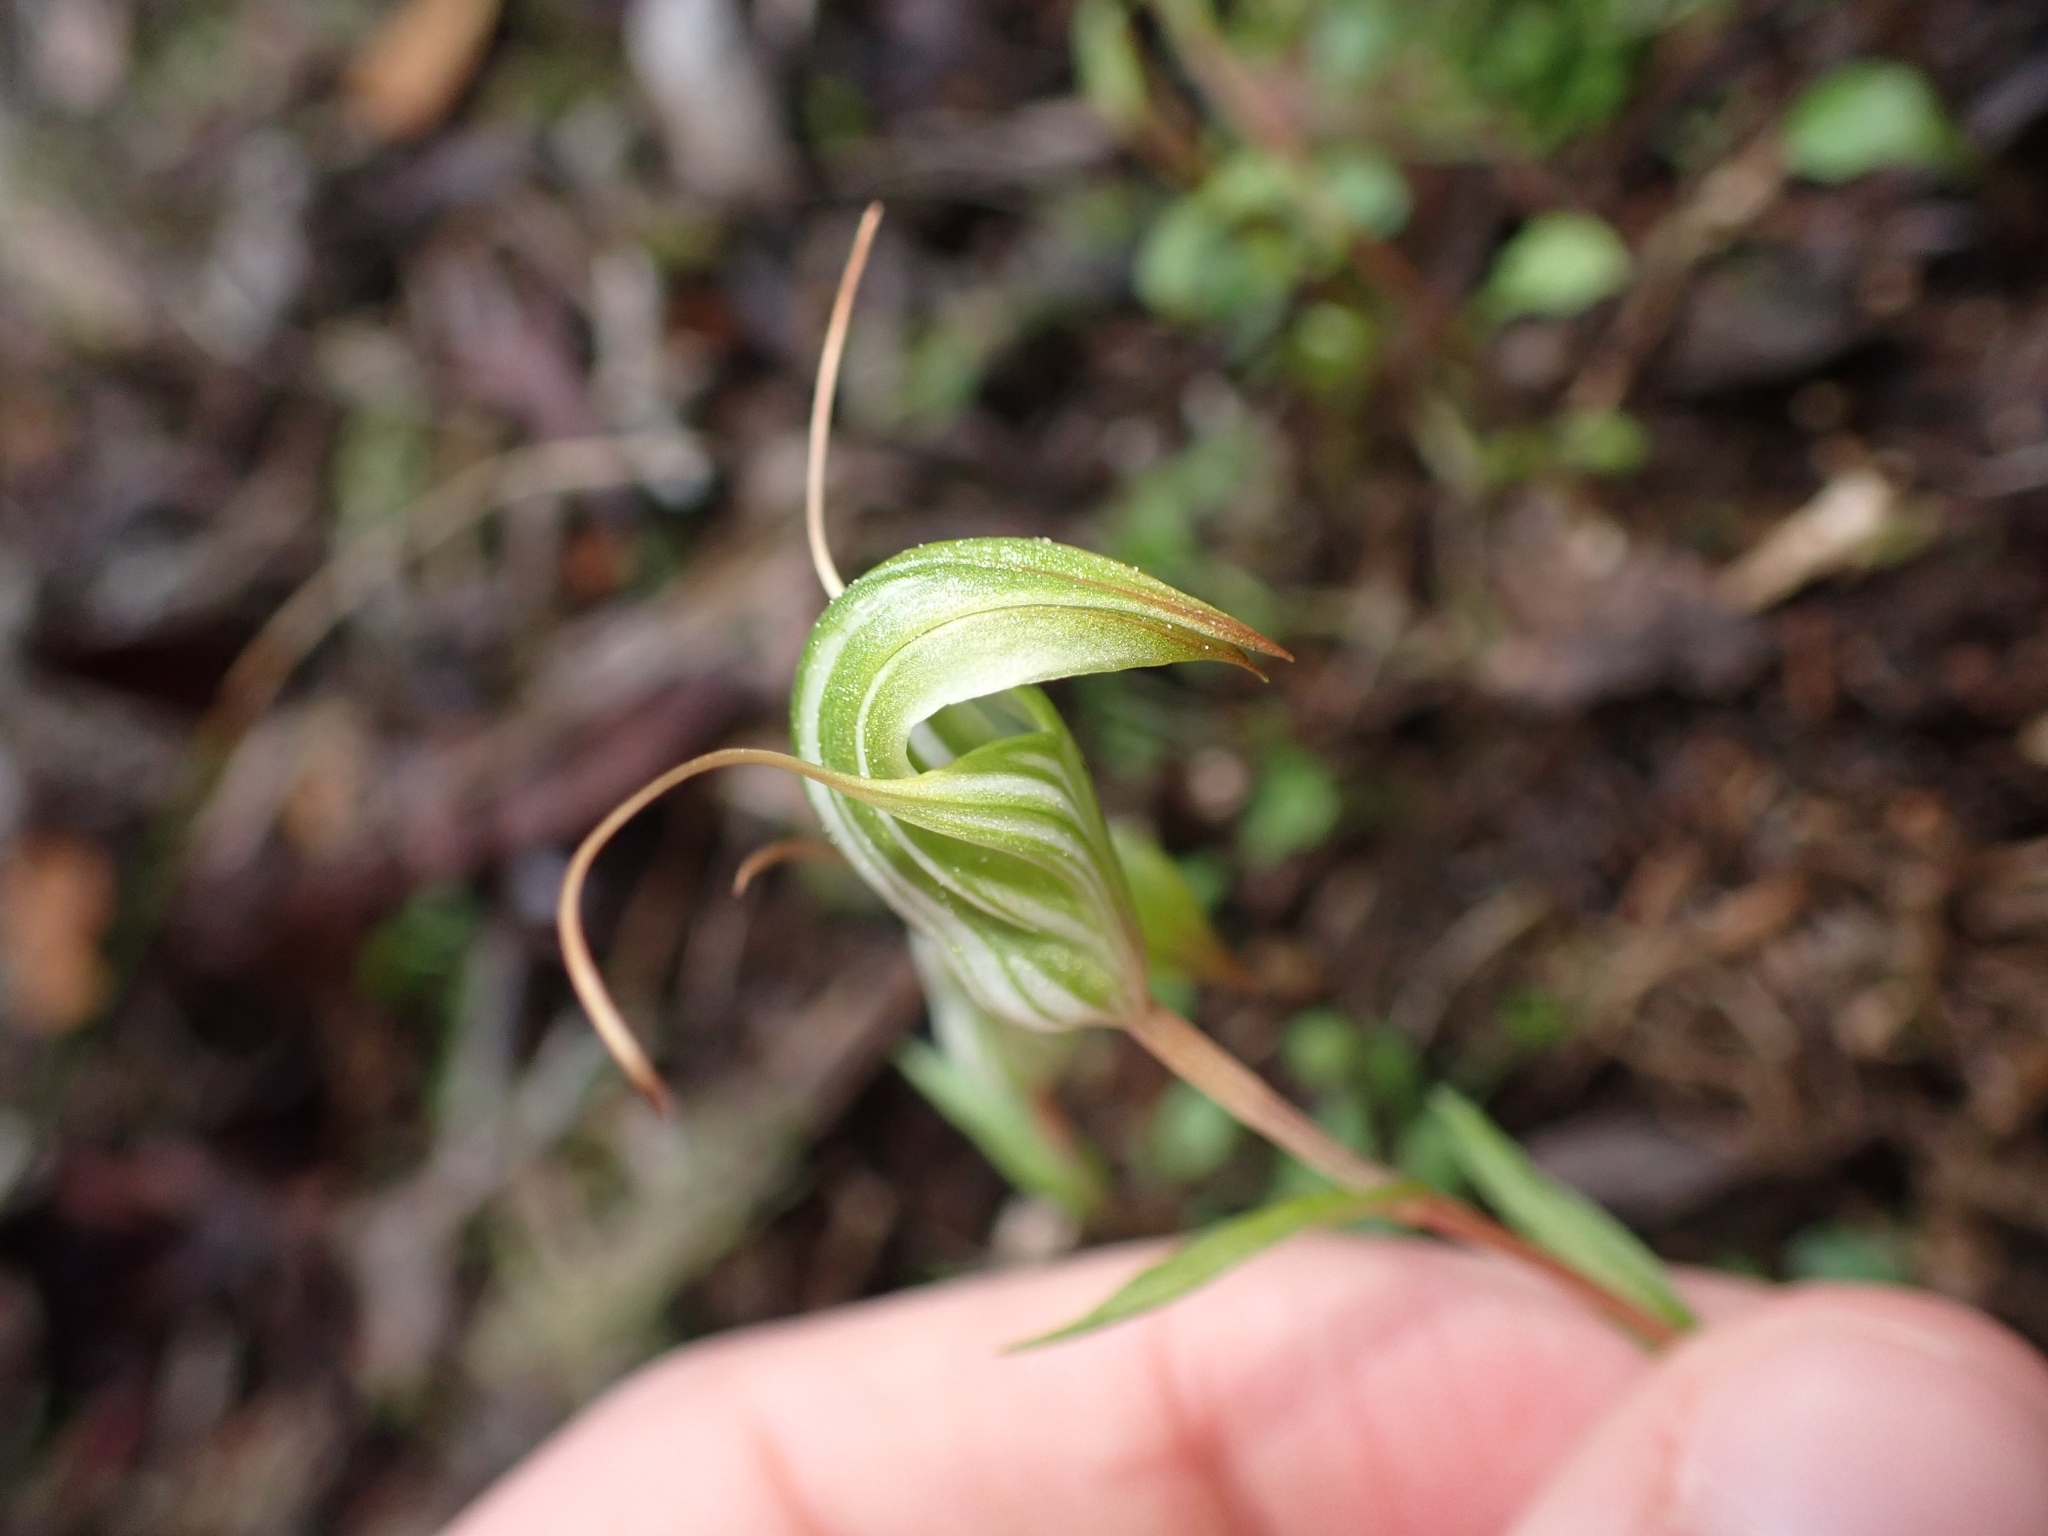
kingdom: Plantae
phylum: Tracheophyta
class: Liliopsida
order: Asparagales
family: Orchidaceae
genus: Pterostylis
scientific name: Pterostylis alobula
